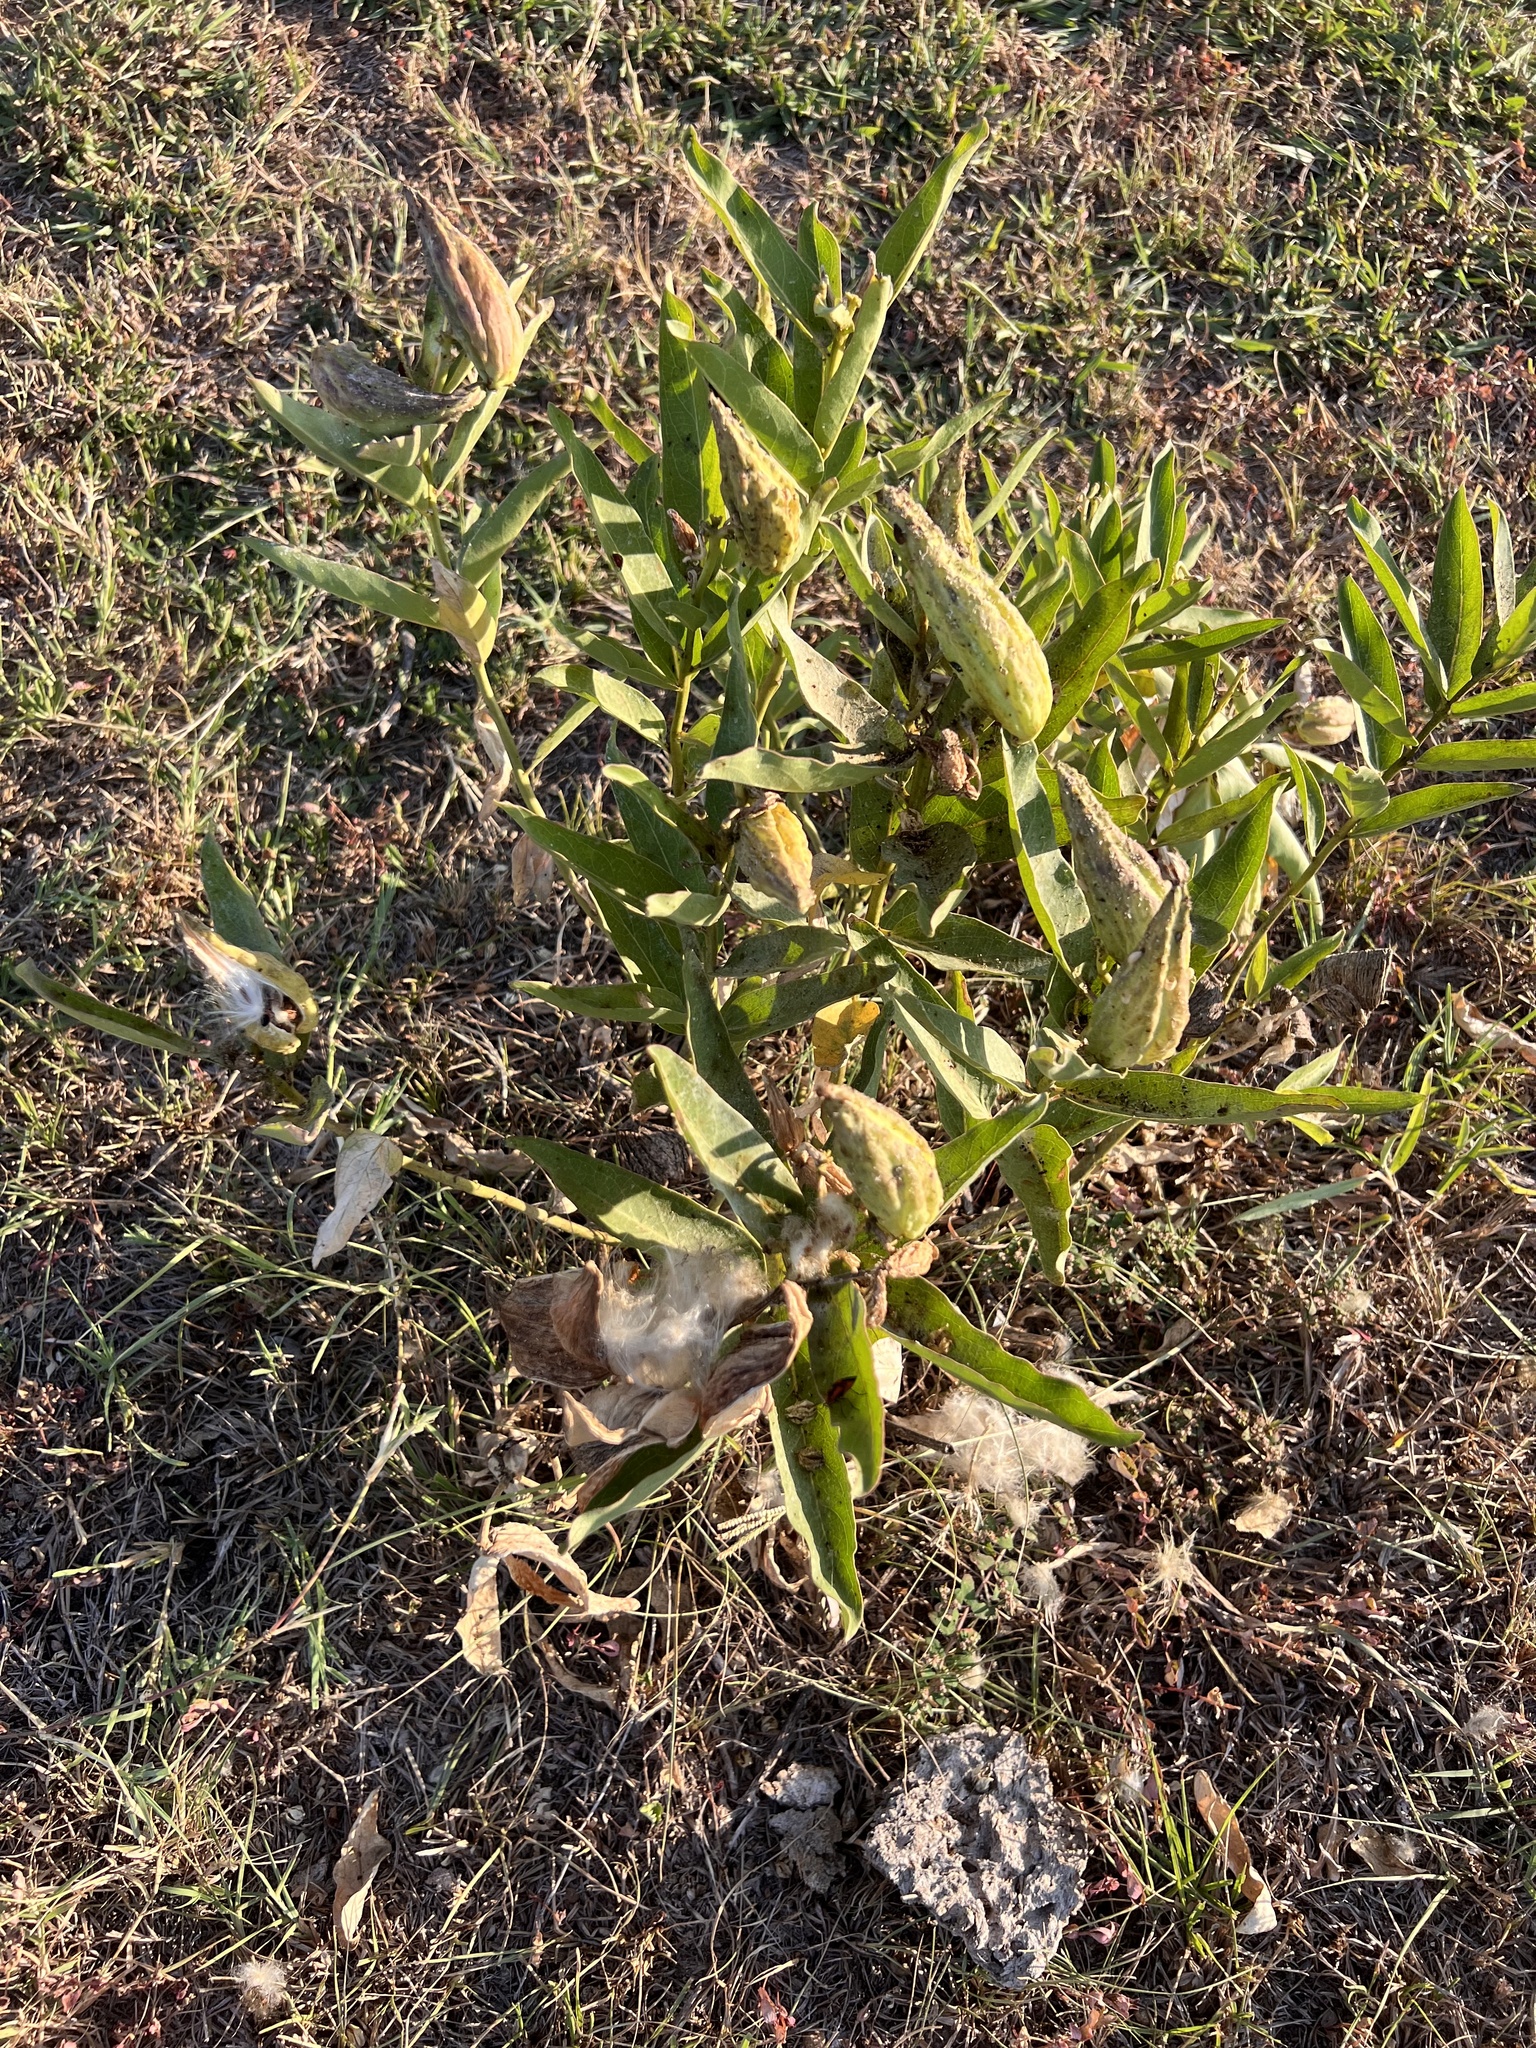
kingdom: Plantae
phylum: Tracheophyta
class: Magnoliopsida
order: Gentianales
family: Apocynaceae
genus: Asclepias
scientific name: Asclepias viridis
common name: Antelope-horns
